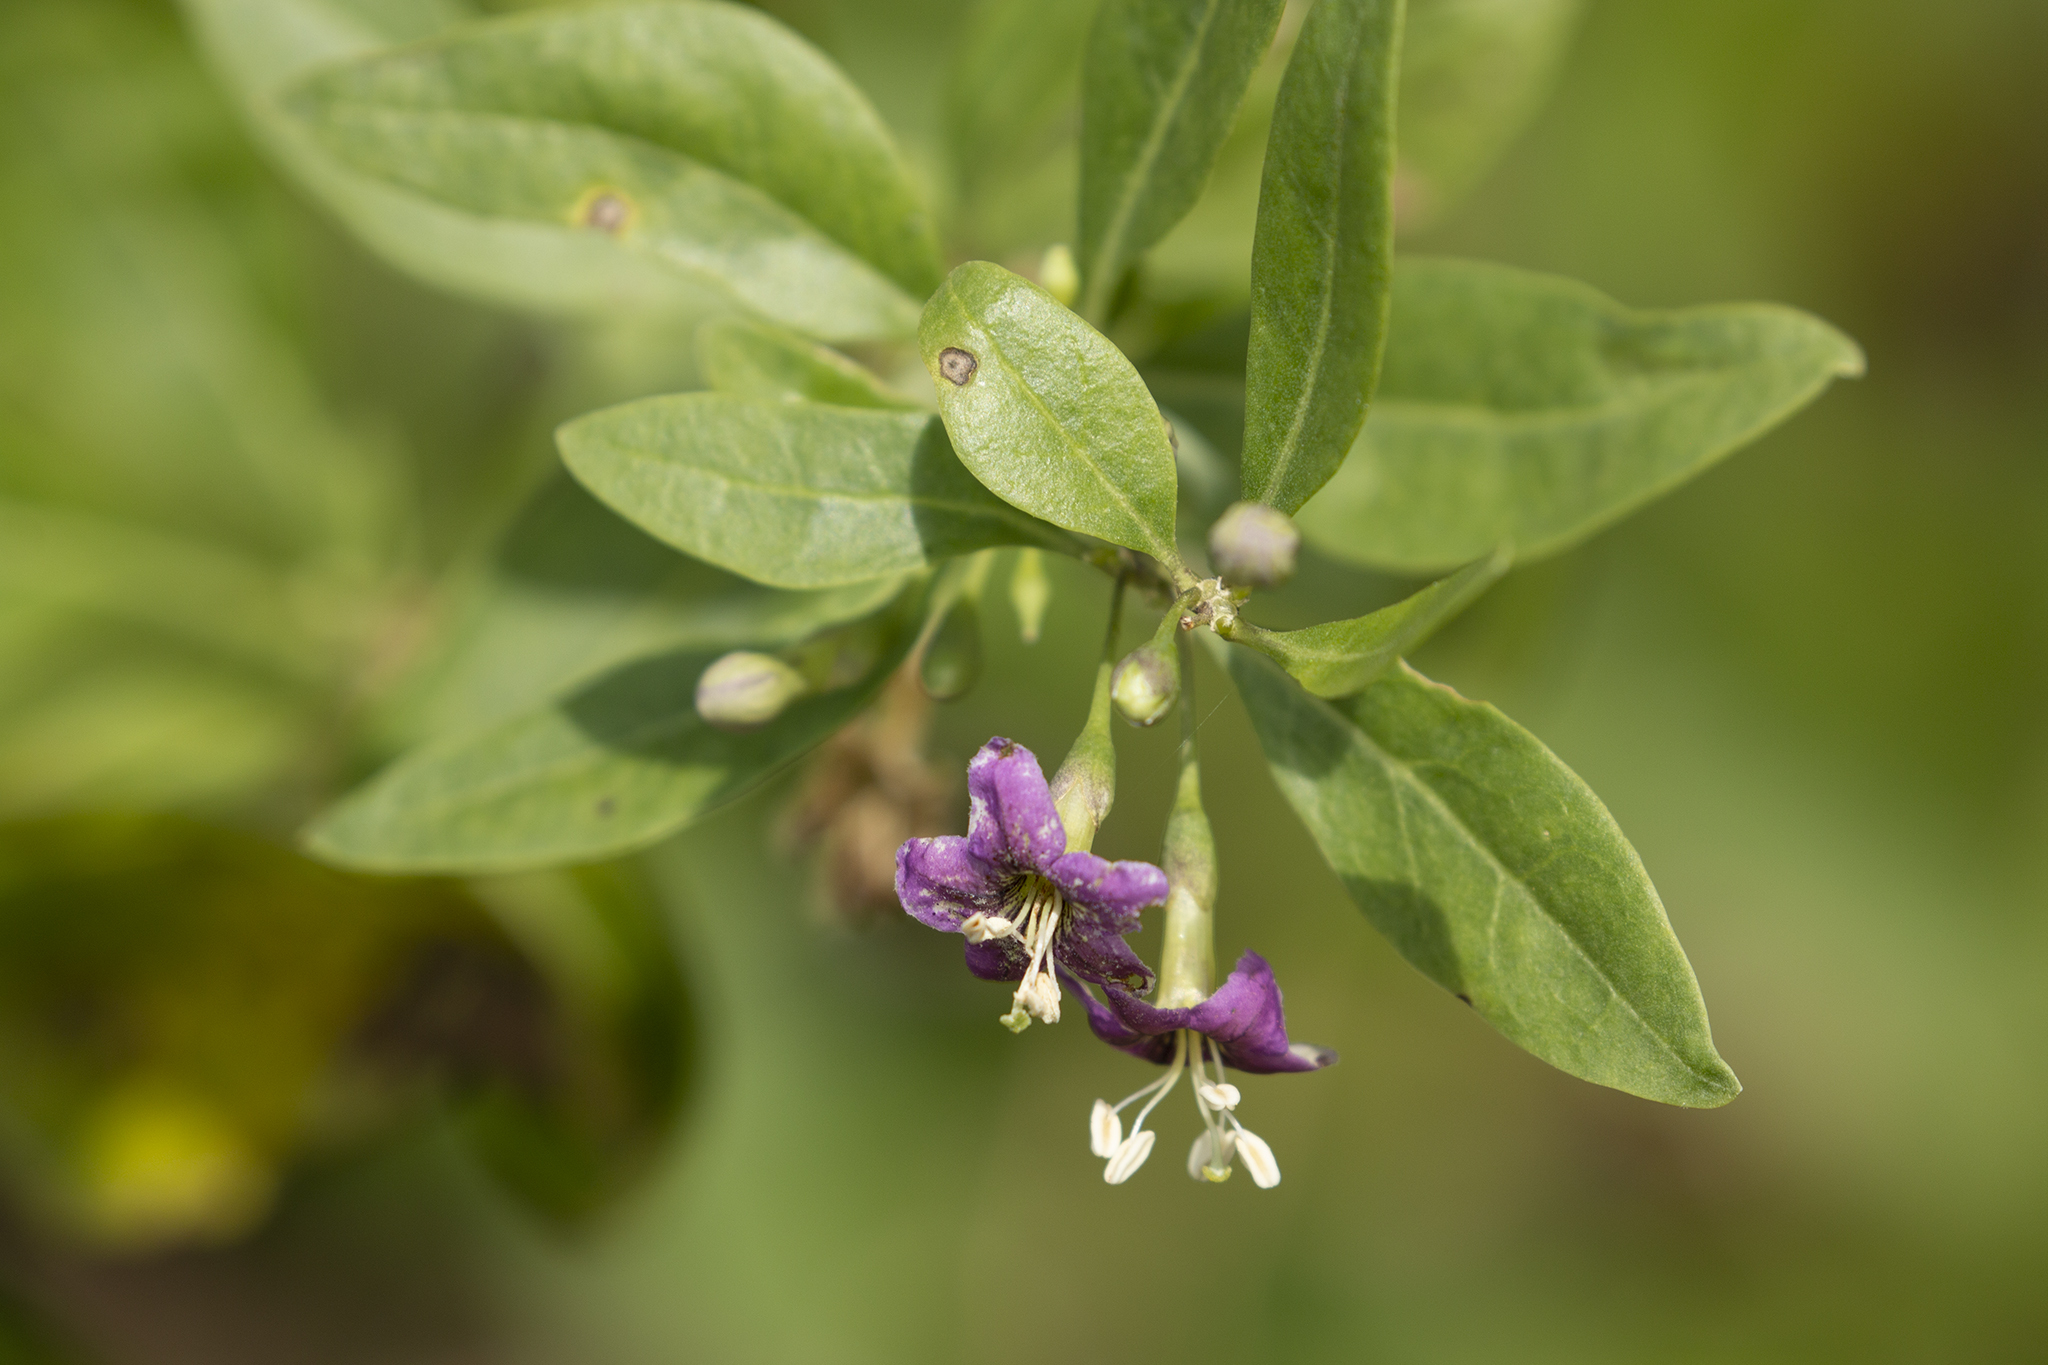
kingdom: Plantae
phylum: Tracheophyta
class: Magnoliopsida
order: Solanales
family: Solanaceae
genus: Lycium
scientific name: Lycium barbarum
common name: Duke of argyll's teaplant
